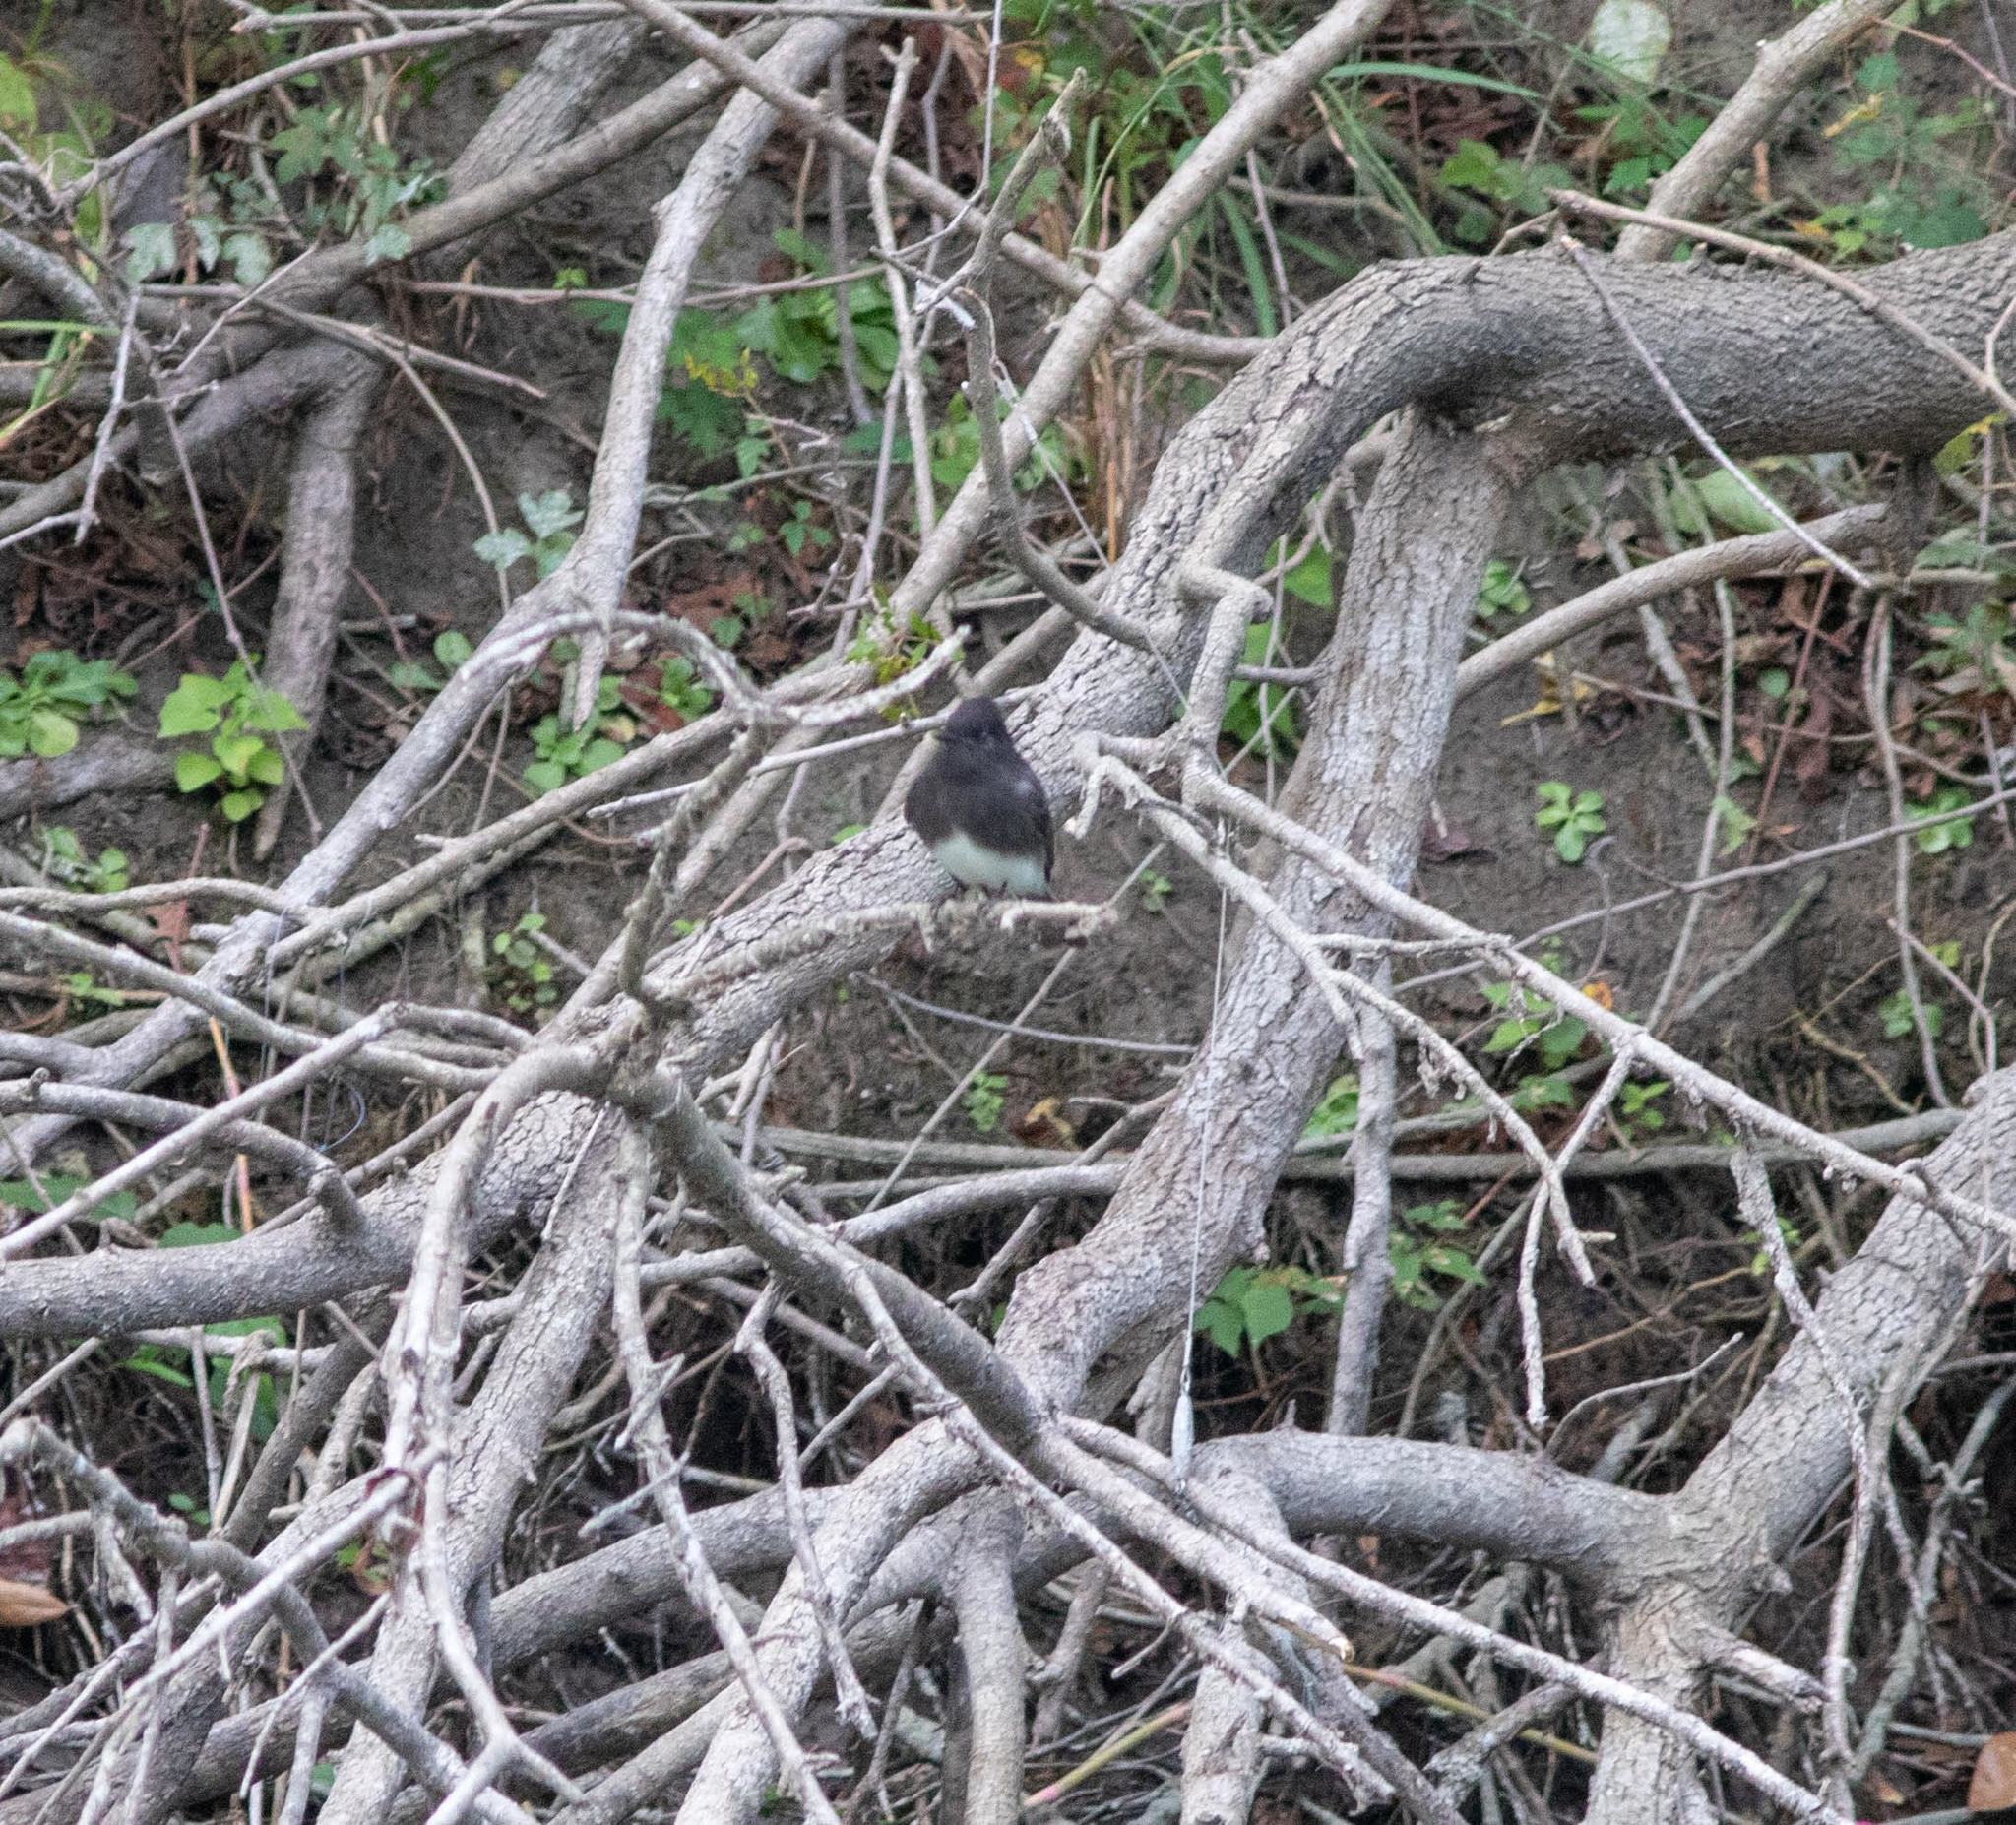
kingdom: Animalia
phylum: Chordata
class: Aves
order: Passeriformes
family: Tyrannidae
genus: Sayornis
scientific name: Sayornis nigricans
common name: Black phoebe
